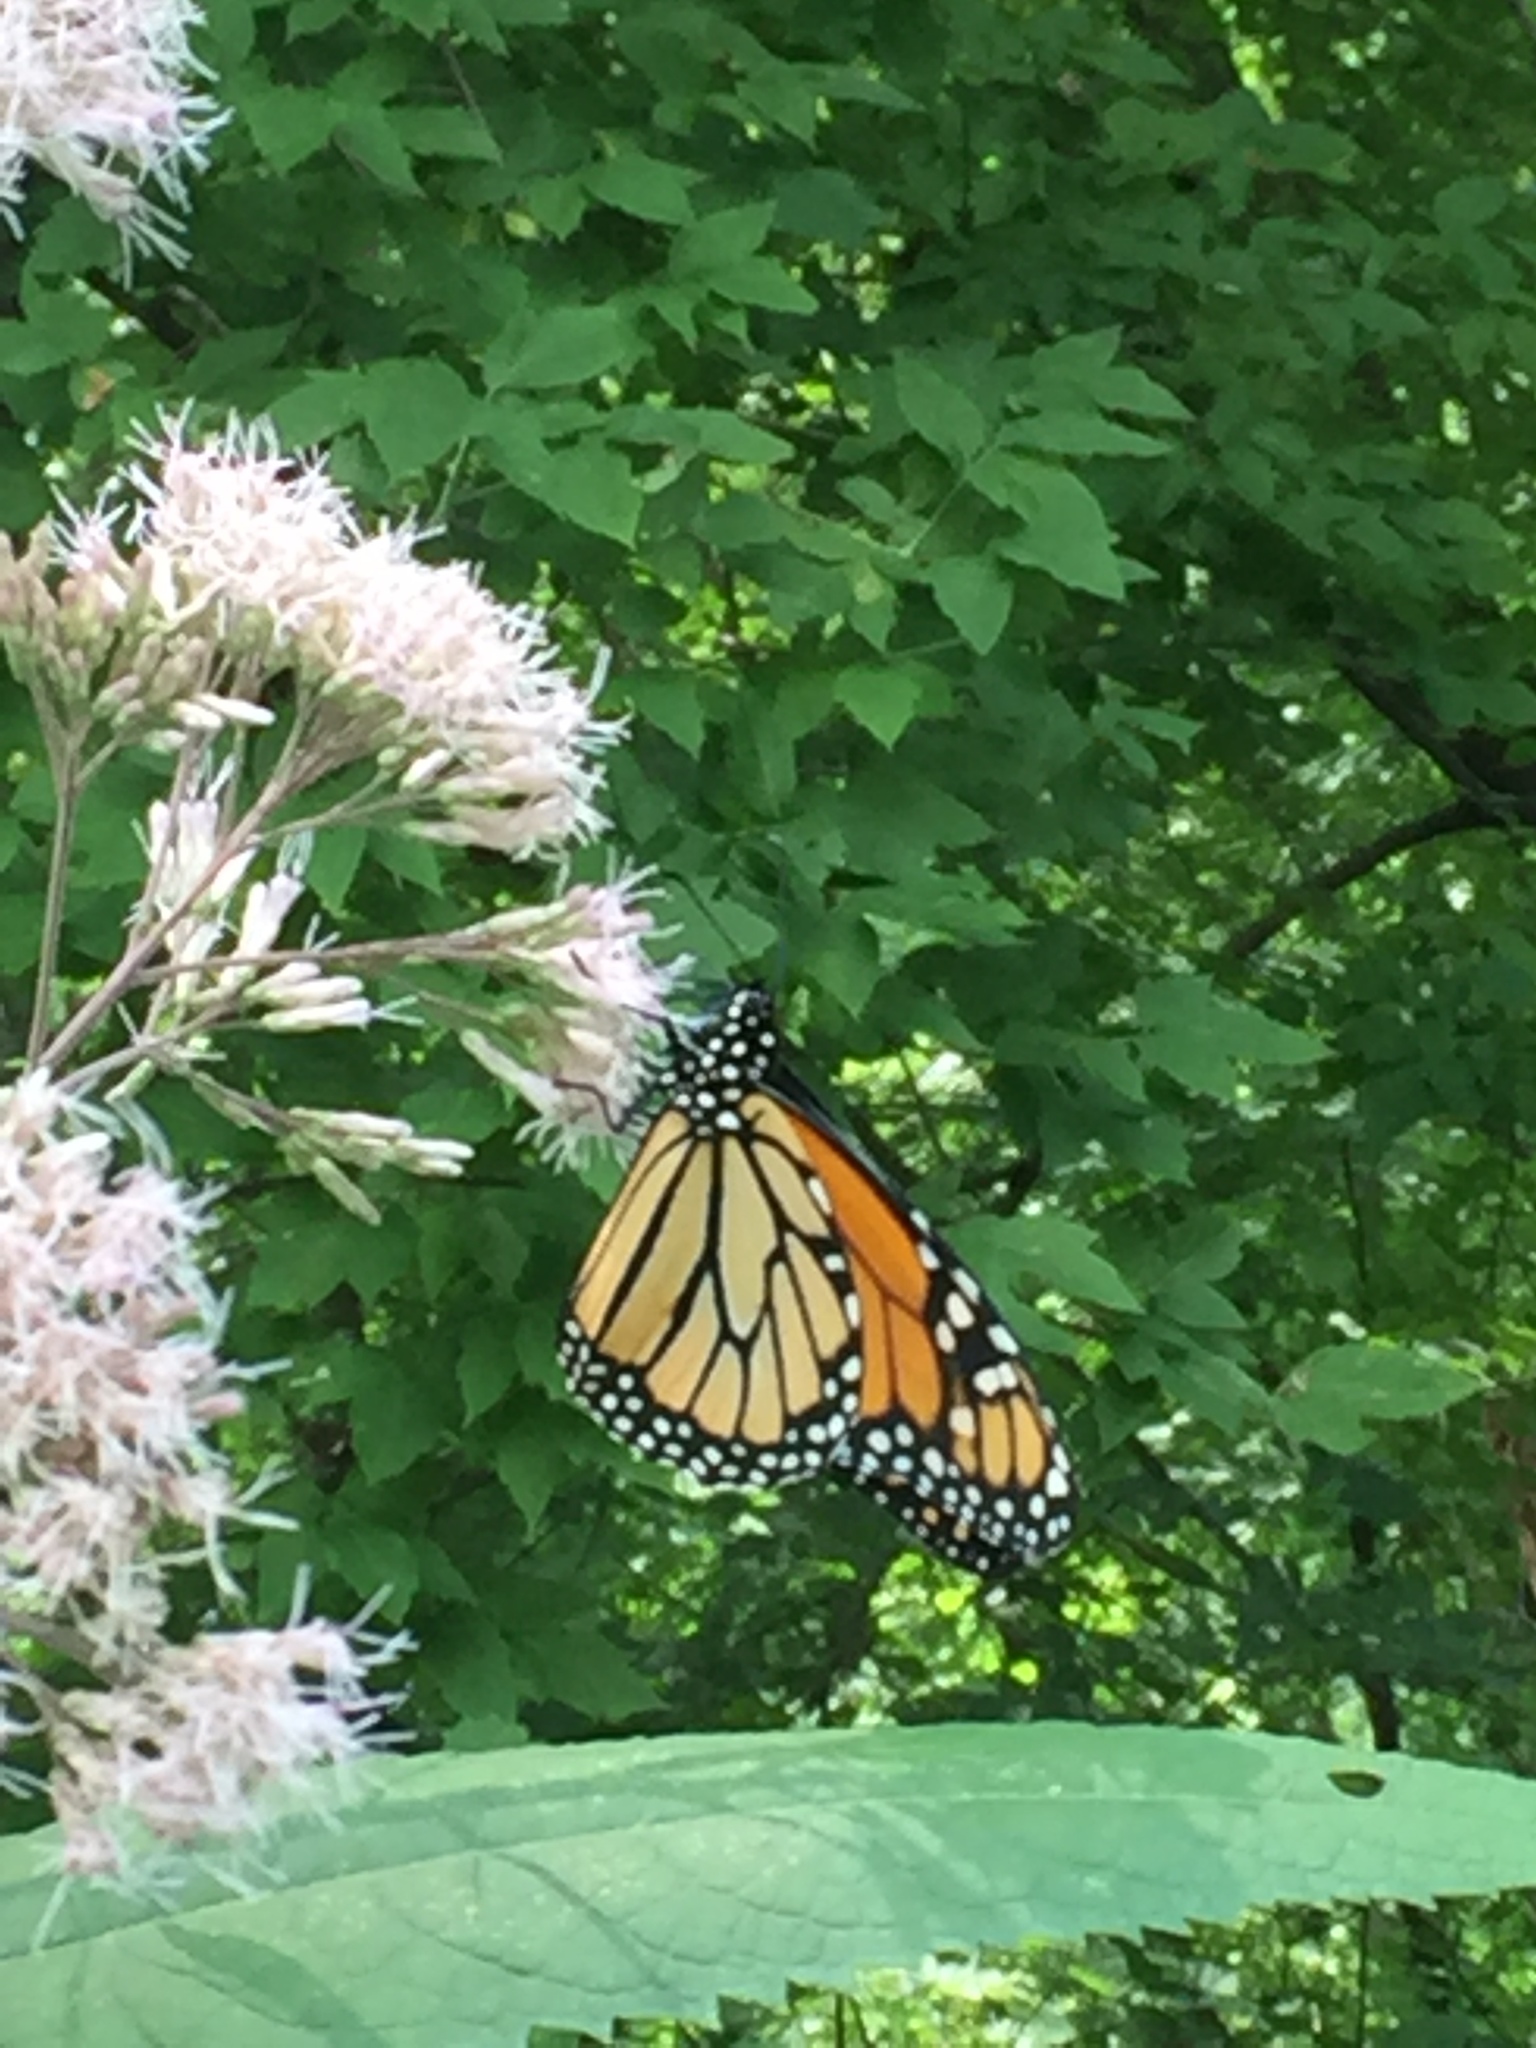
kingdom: Animalia
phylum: Arthropoda
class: Insecta
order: Lepidoptera
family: Nymphalidae
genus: Danaus
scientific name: Danaus plexippus
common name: Monarch
